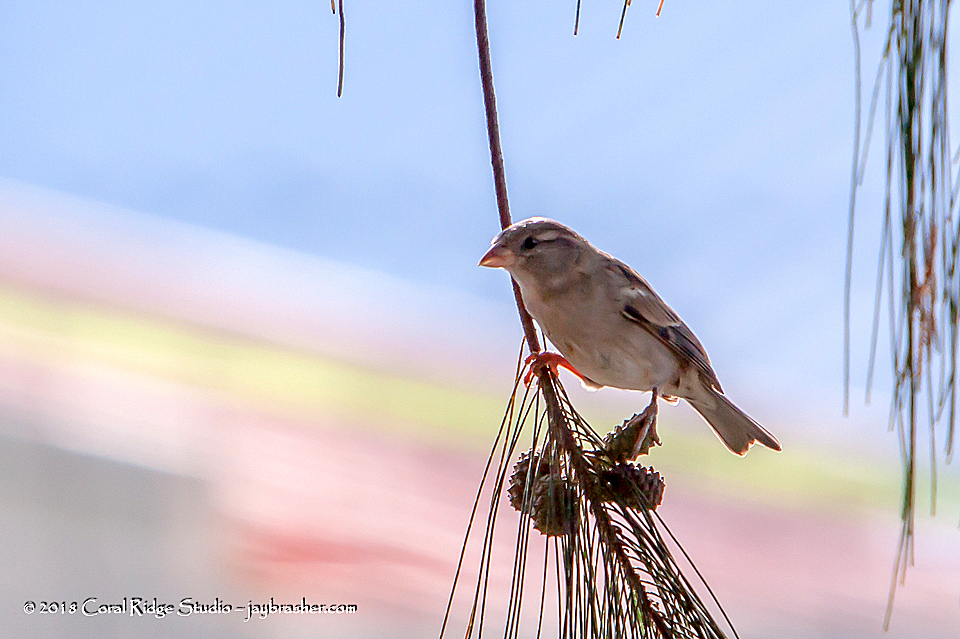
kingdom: Animalia
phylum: Chordata
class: Aves
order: Passeriformes
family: Passeridae
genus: Passer
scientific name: Passer domesticus
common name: House sparrow
